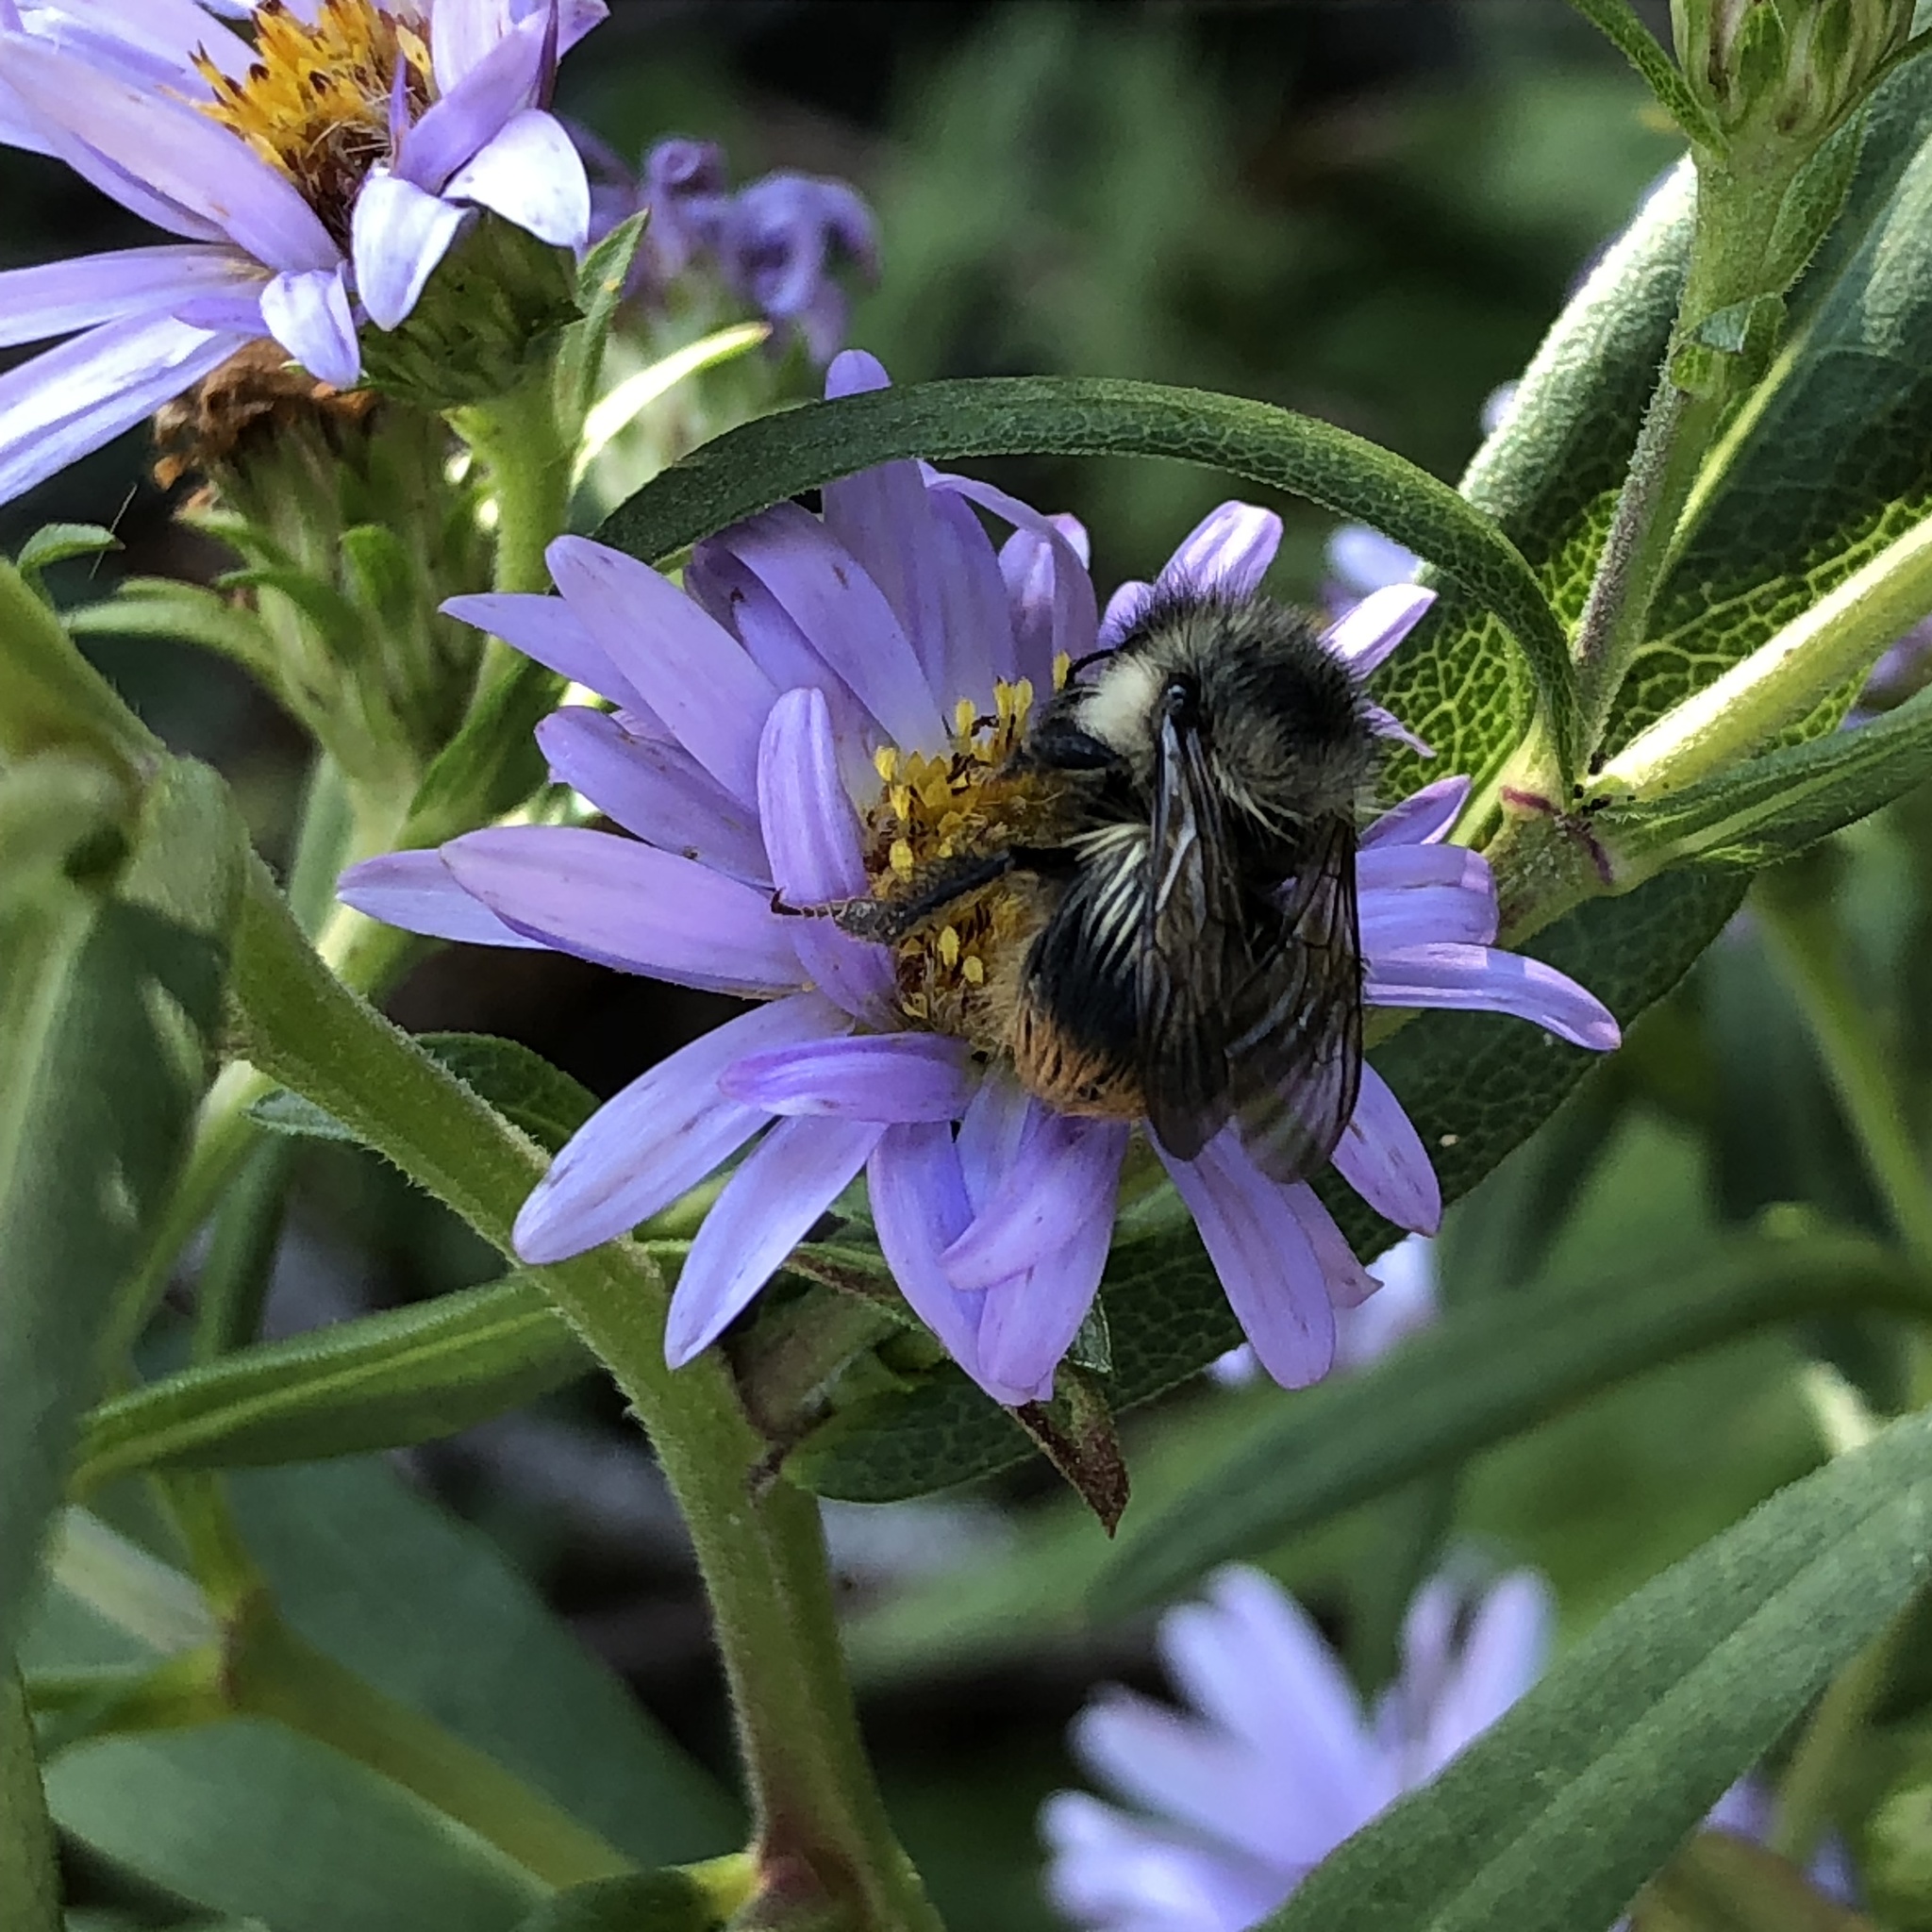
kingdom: Animalia
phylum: Arthropoda
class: Insecta
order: Hymenoptera
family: Apidae
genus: Bombus
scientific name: Bombus mixtus
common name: Fuzzy-horned bumble bee
